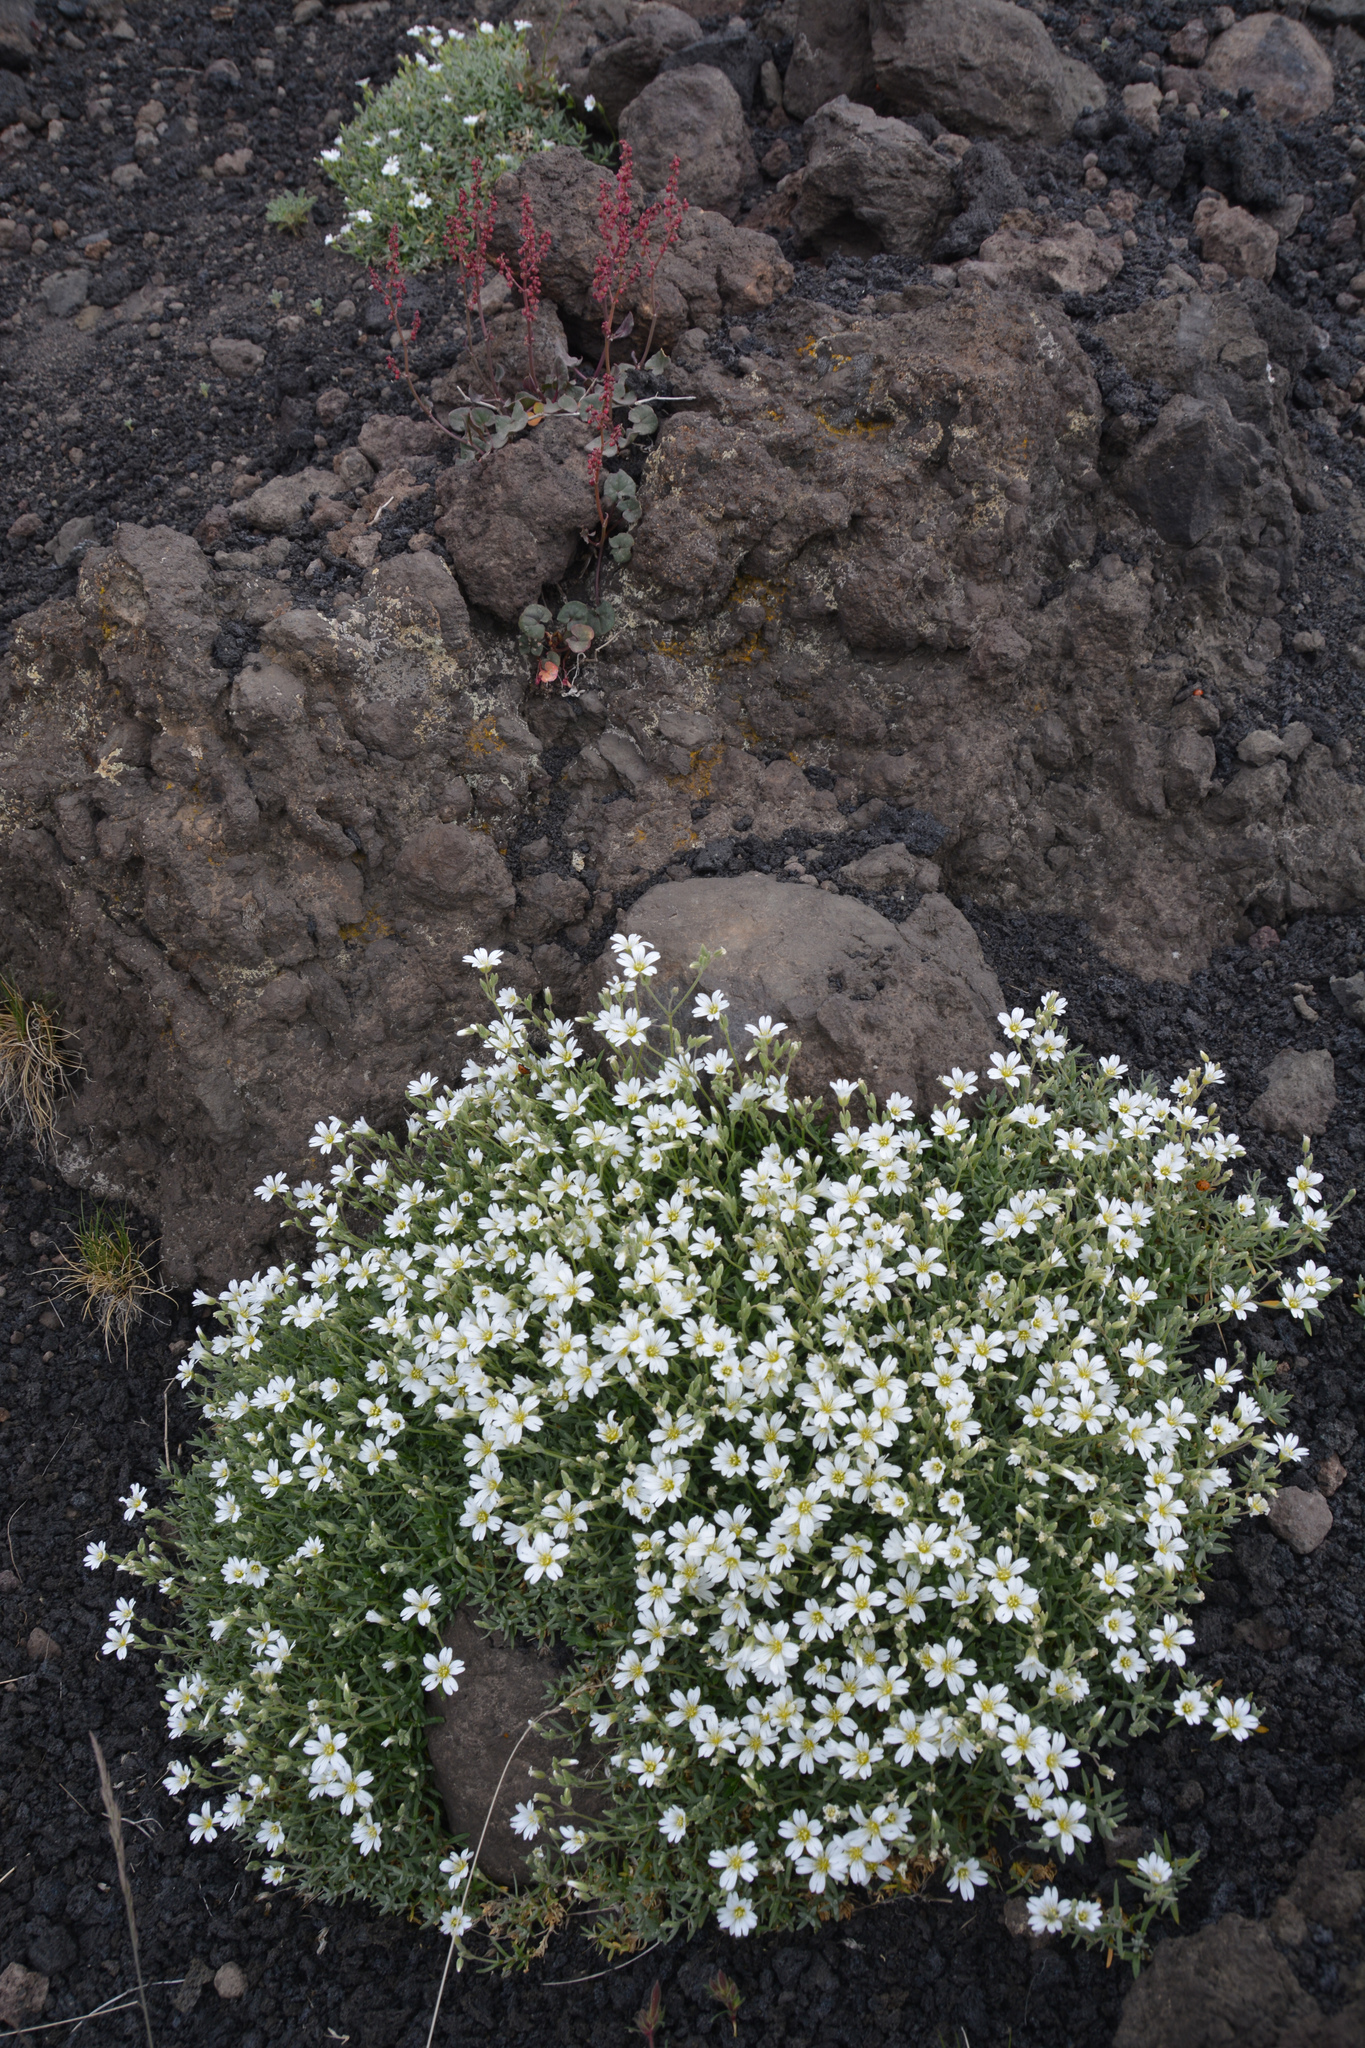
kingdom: Plantae
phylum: Tracheophyta
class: Magnoliopsida
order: Caryophyllales
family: Caryophyllaceae
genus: Cerastium
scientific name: Cerastium tomentosum
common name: Snow-in-summer
